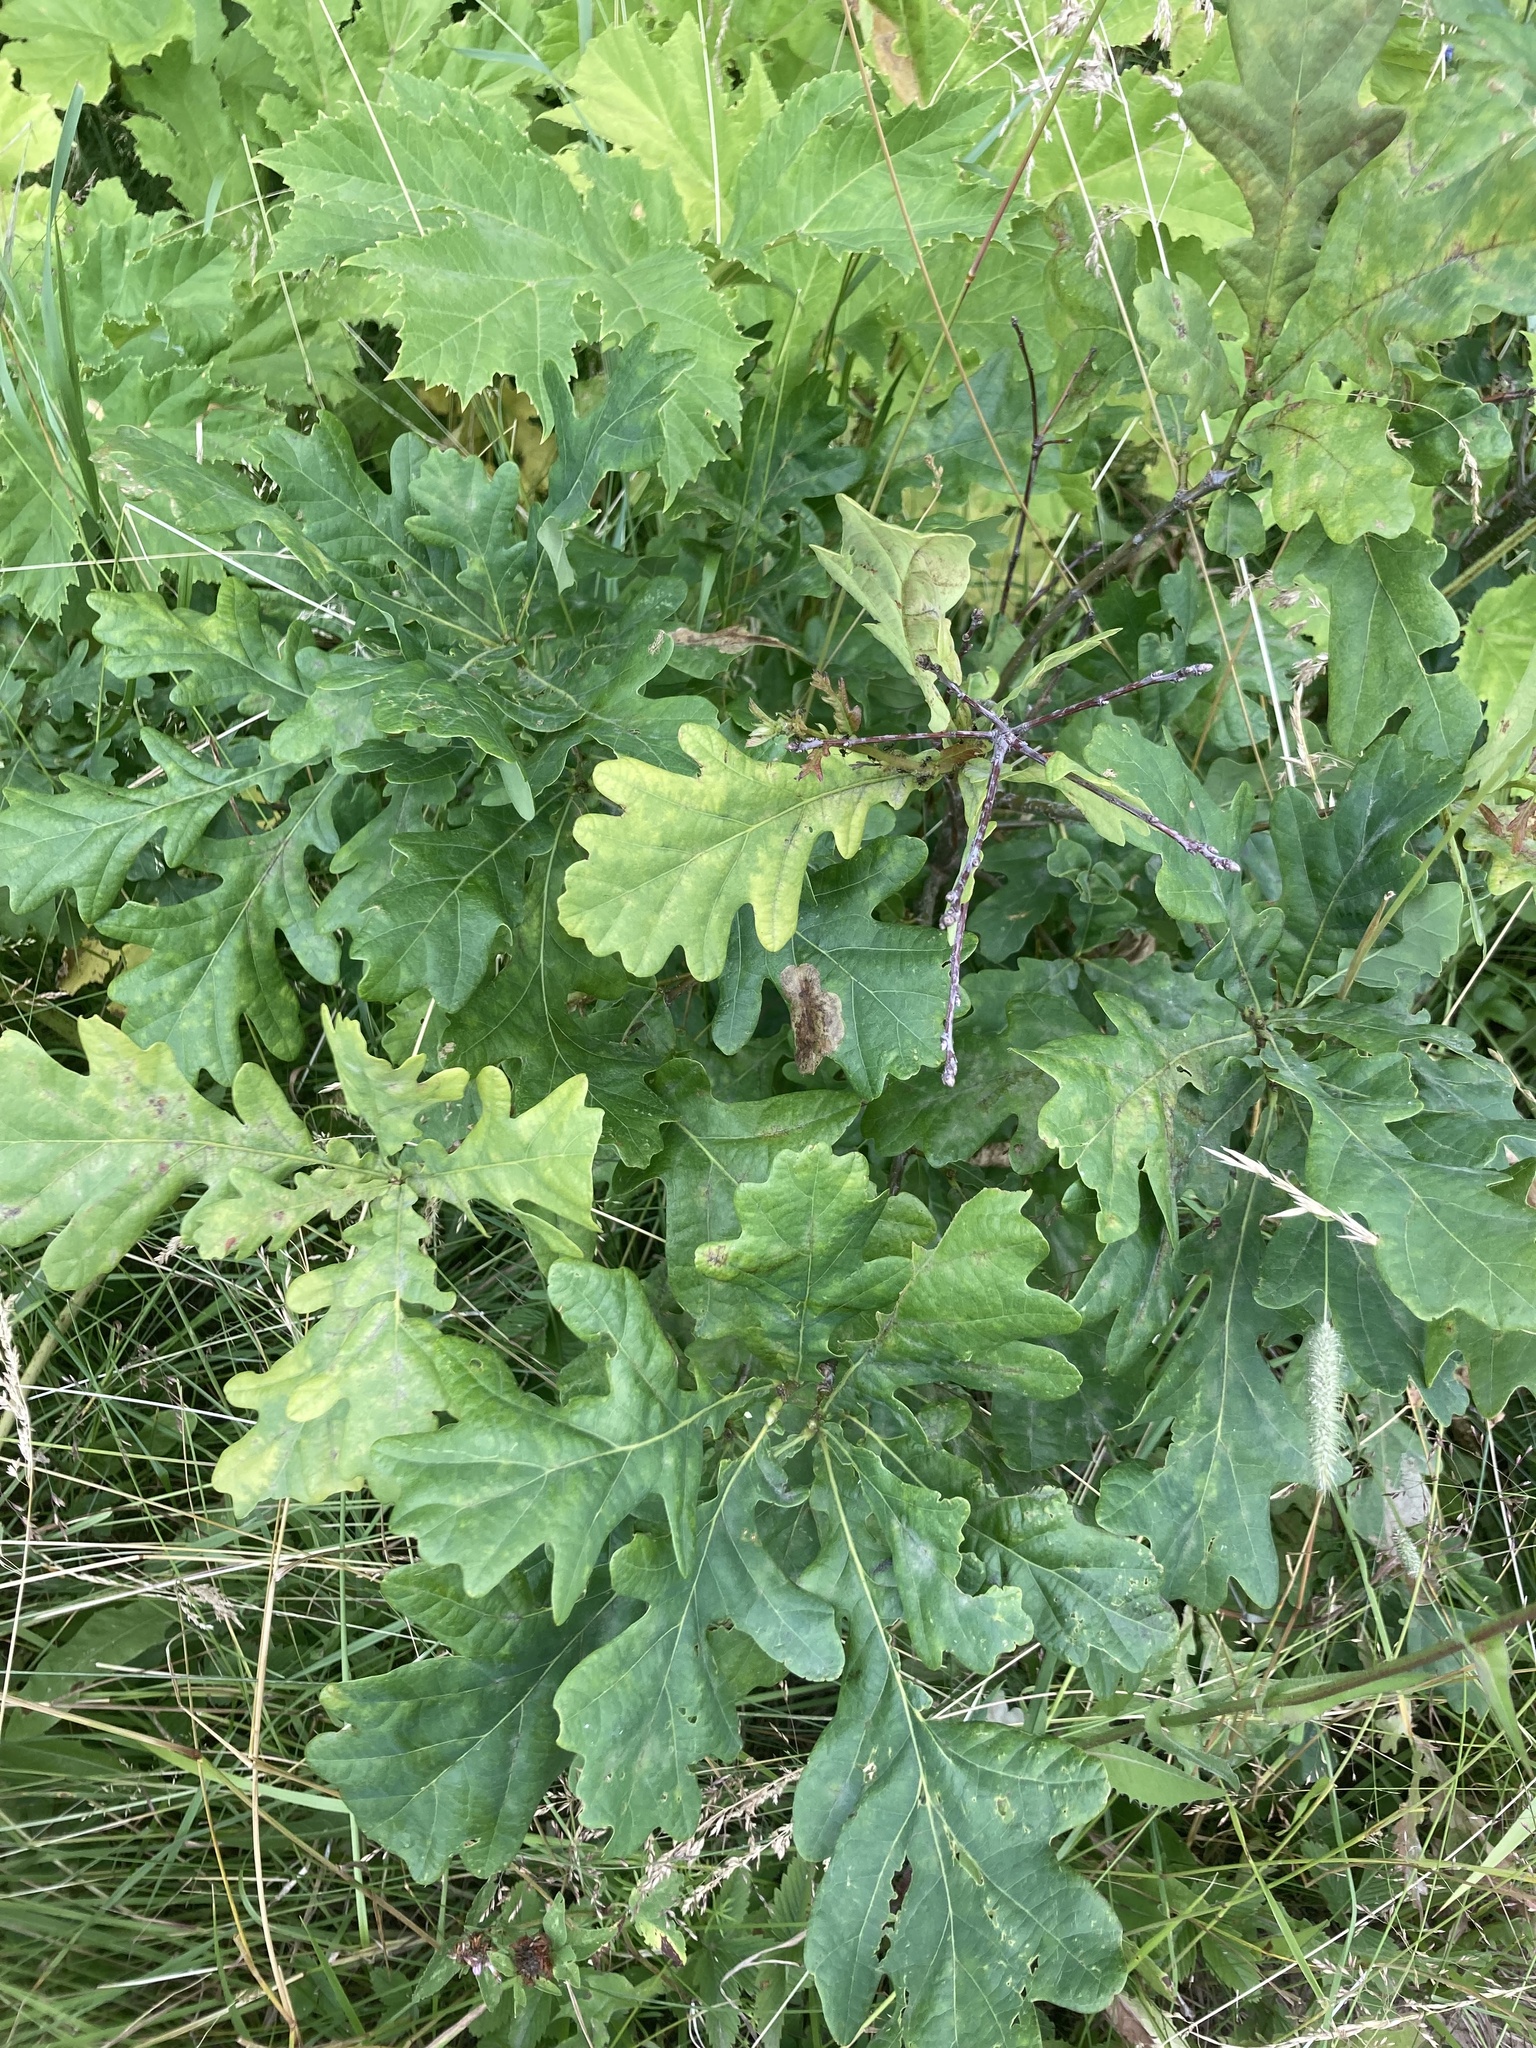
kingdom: Plantae
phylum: Tracheophyta
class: Magnoliopsida
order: Fagales
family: Fagaceae
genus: Quercus
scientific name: Quercus robur
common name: Pedunculate oak
